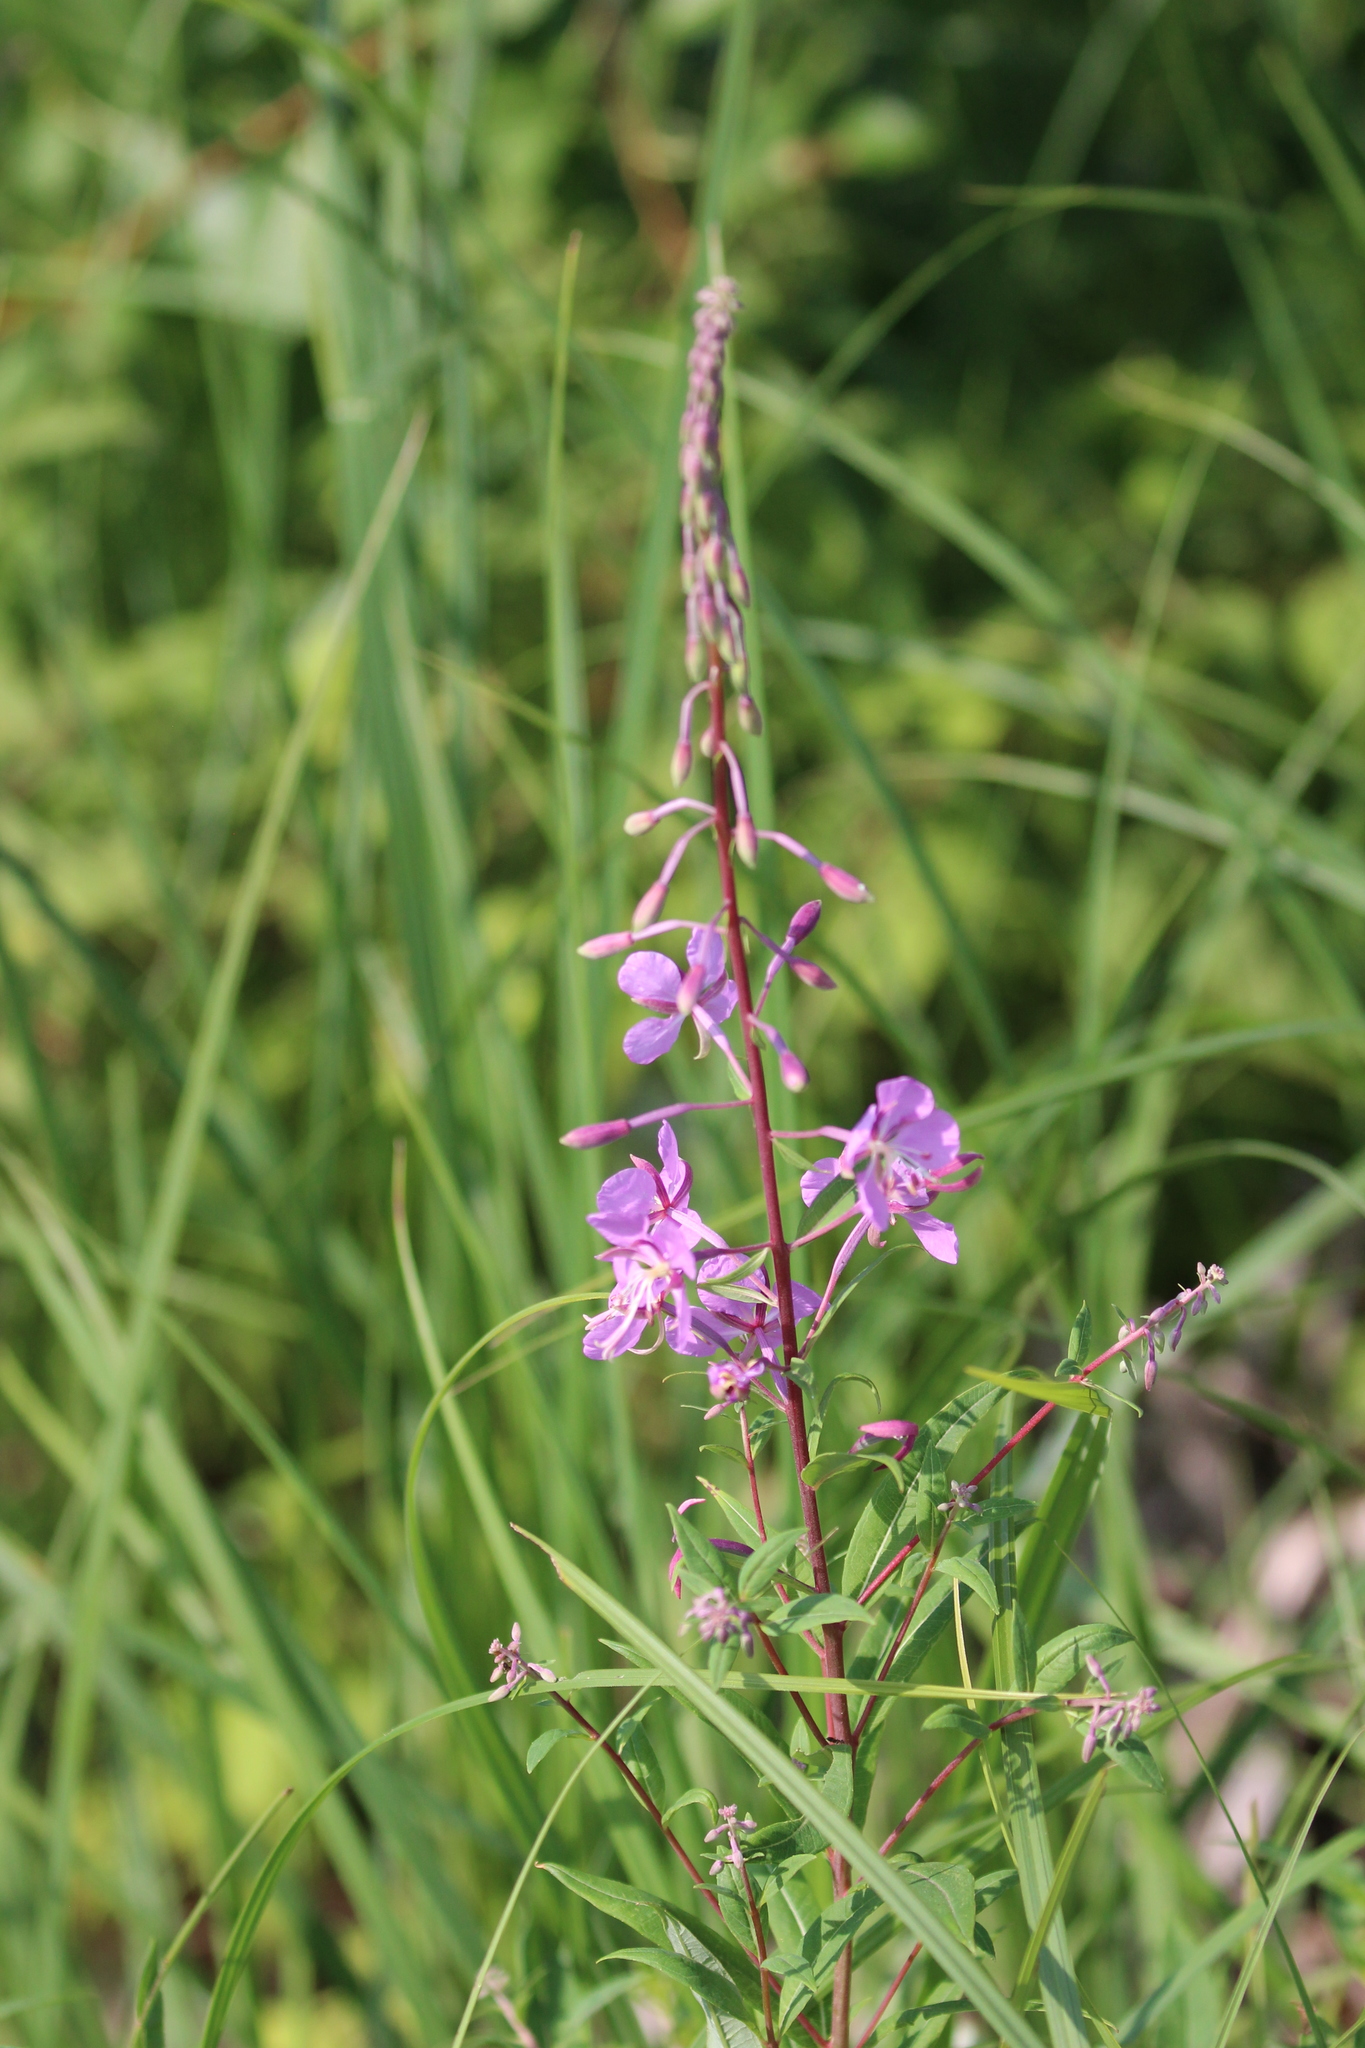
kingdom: Plantae
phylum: Tracheophyta
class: Magnoliopsida
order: Myrtales
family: Onagraceae
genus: Chamaenerion
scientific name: Chamaenerion angustifolium
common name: Fireweed
